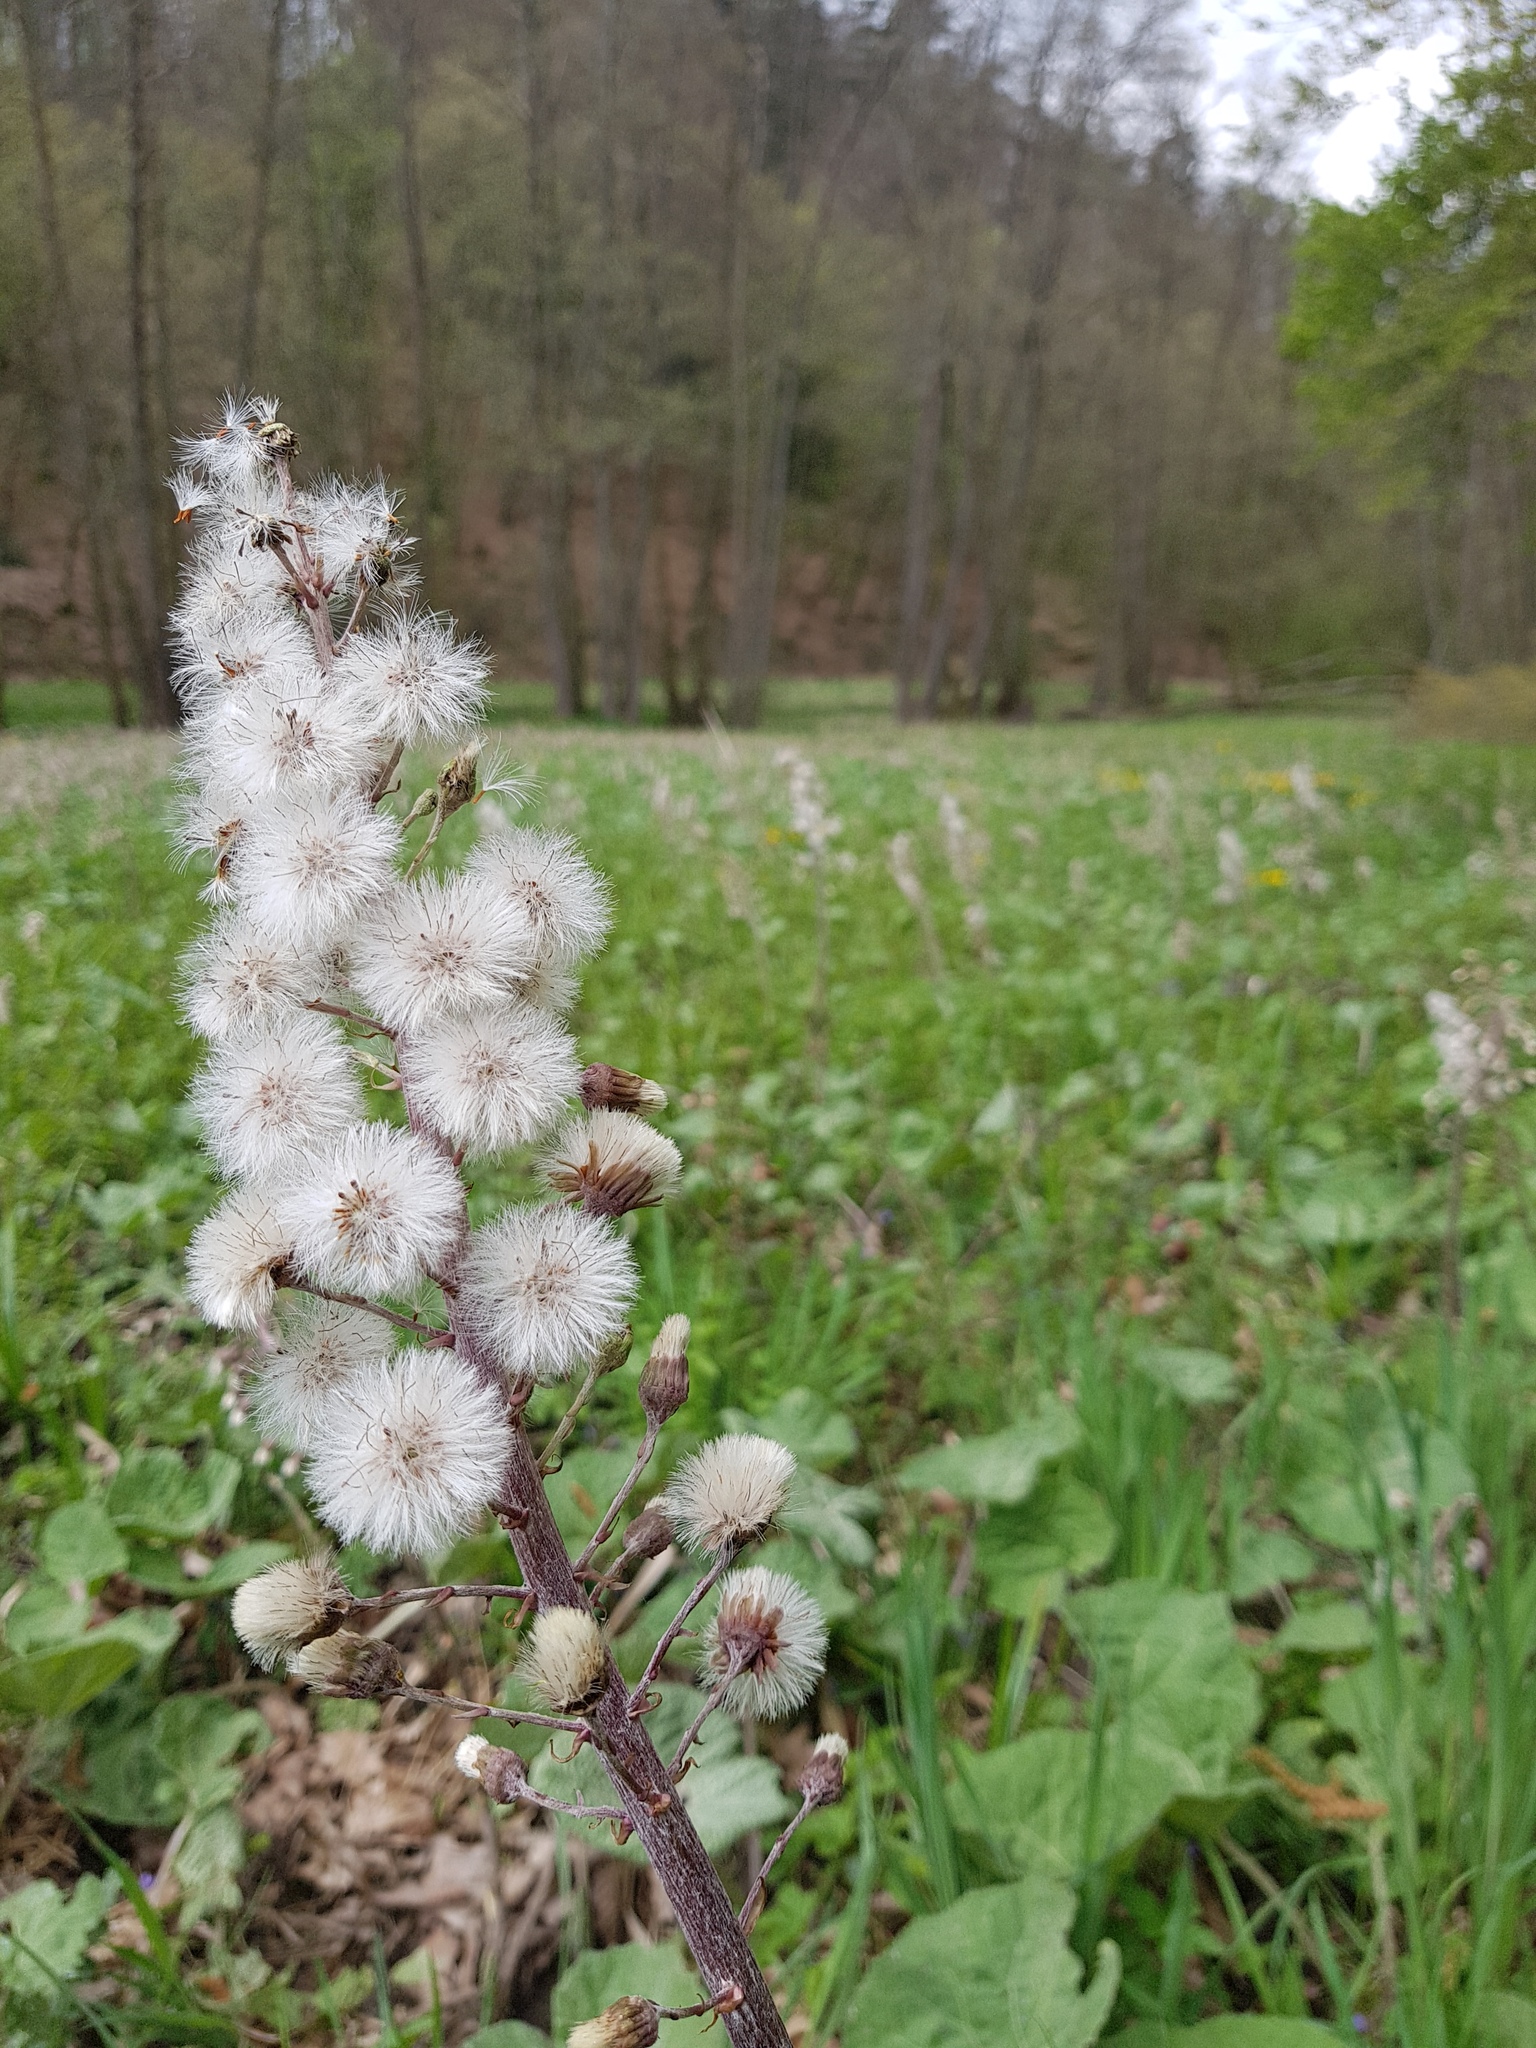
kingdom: Plantae
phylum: Tracheophyta
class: Magnoliopsida
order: Asterales
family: Asteraceae
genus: Petasites
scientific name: Petasites hybridus
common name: Butterbur
